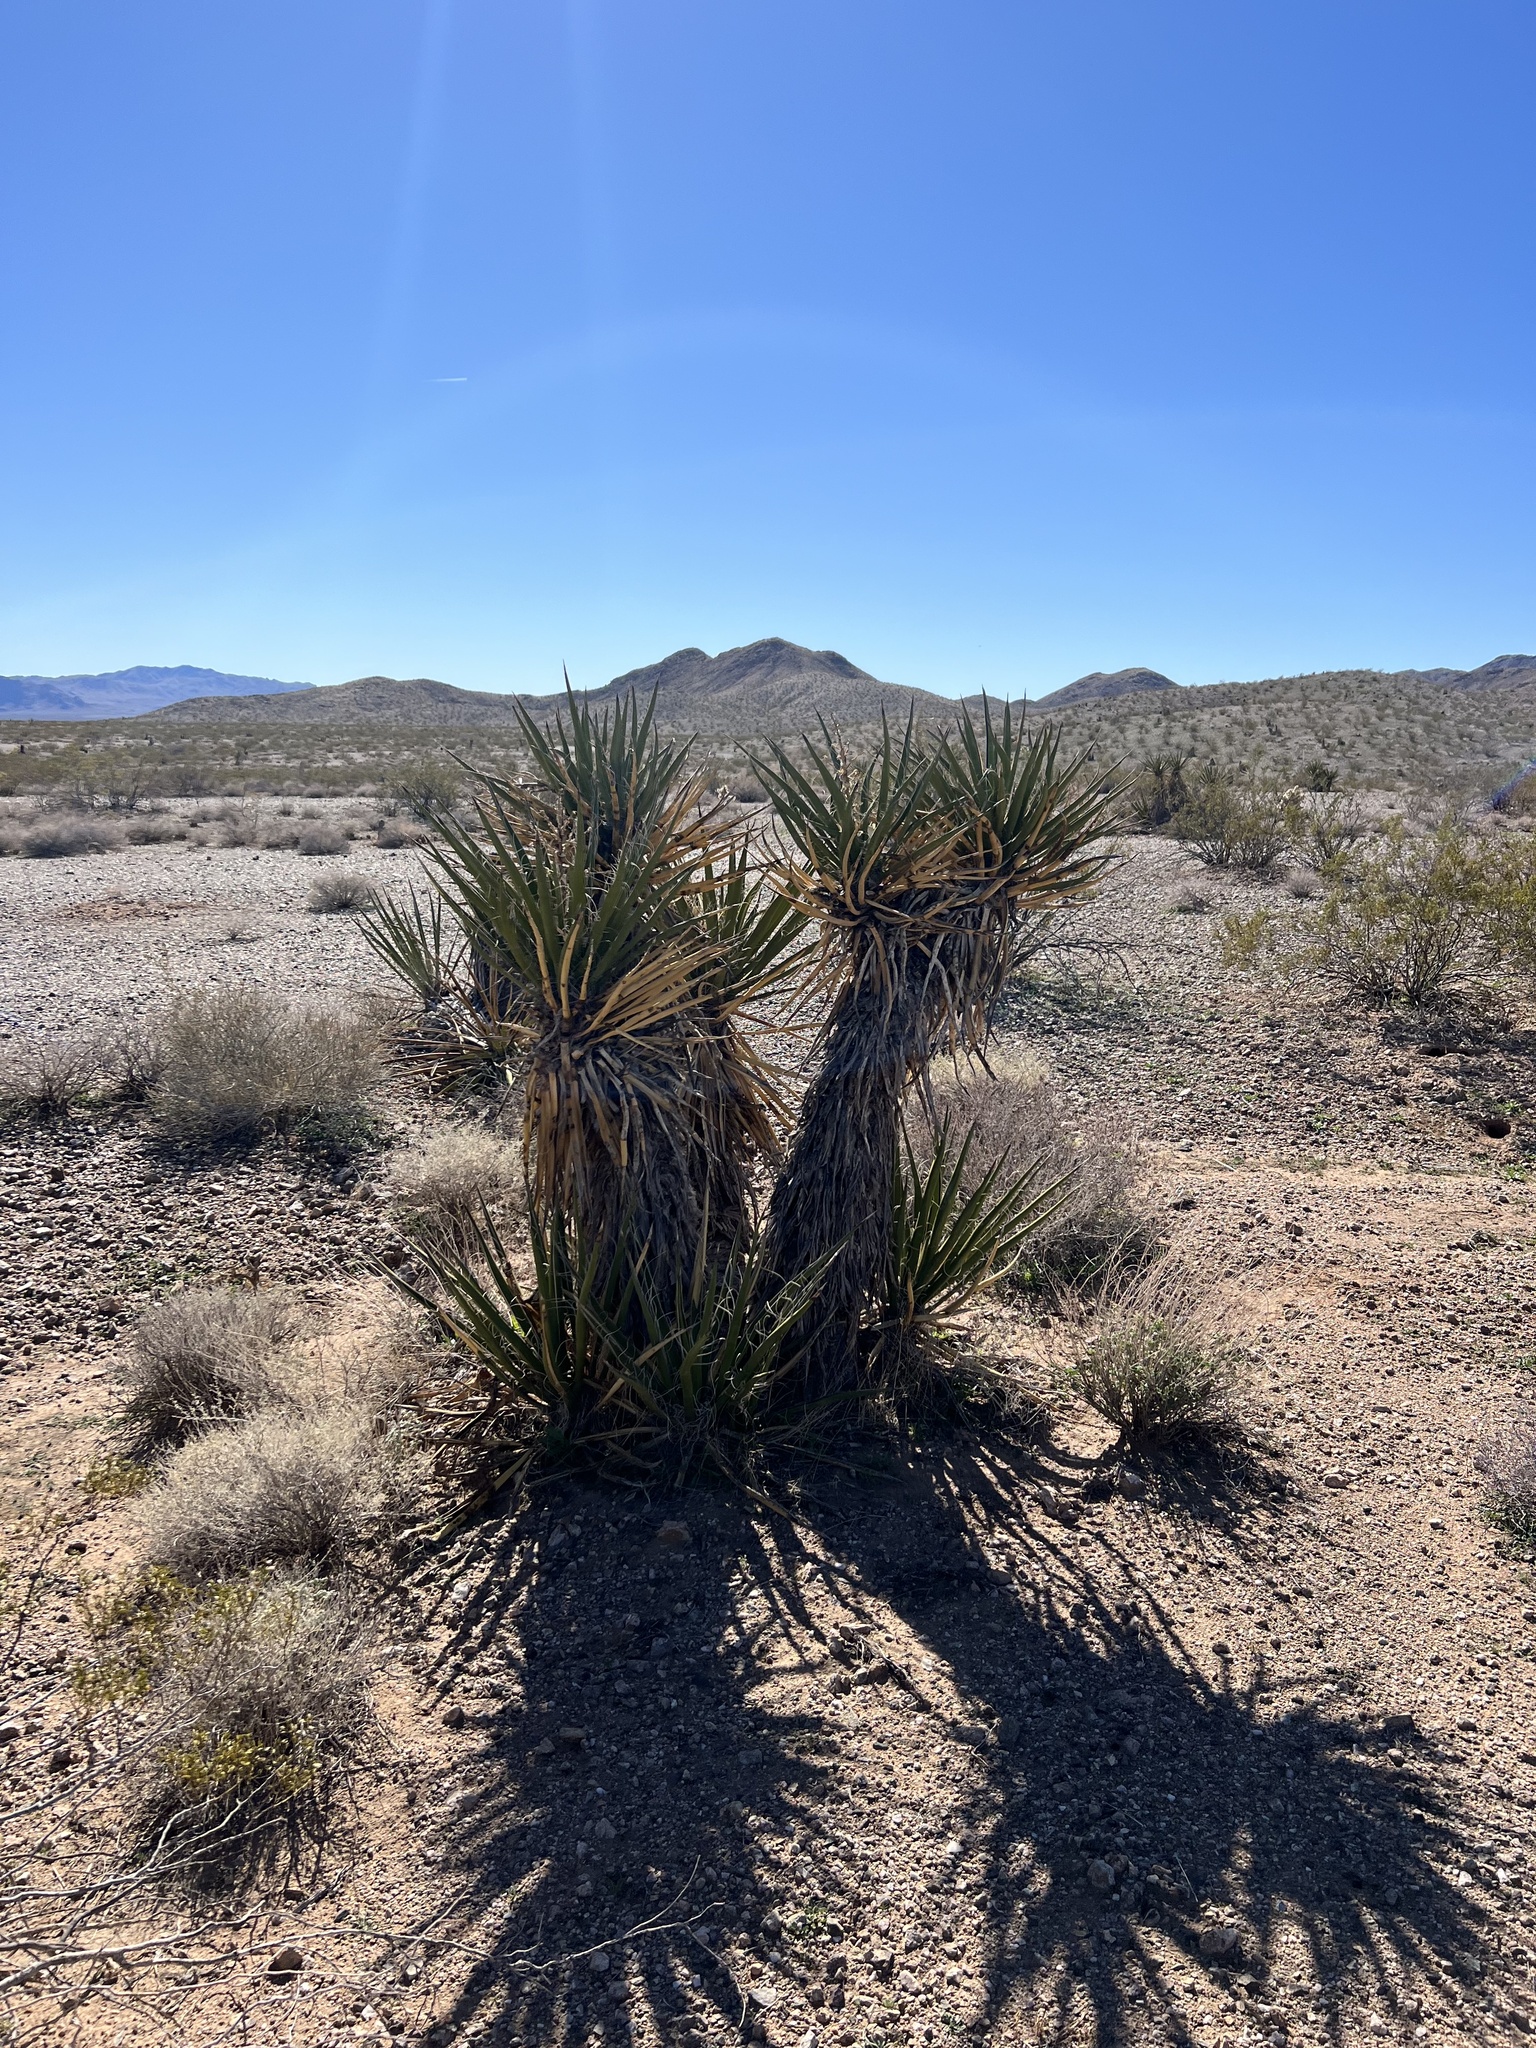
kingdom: Plantae
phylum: Tracheophyta
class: Liliopsida
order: Asparagales
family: Asparagaceae
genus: Yucca
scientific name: Yucca schidigera
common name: Mojave yucca
